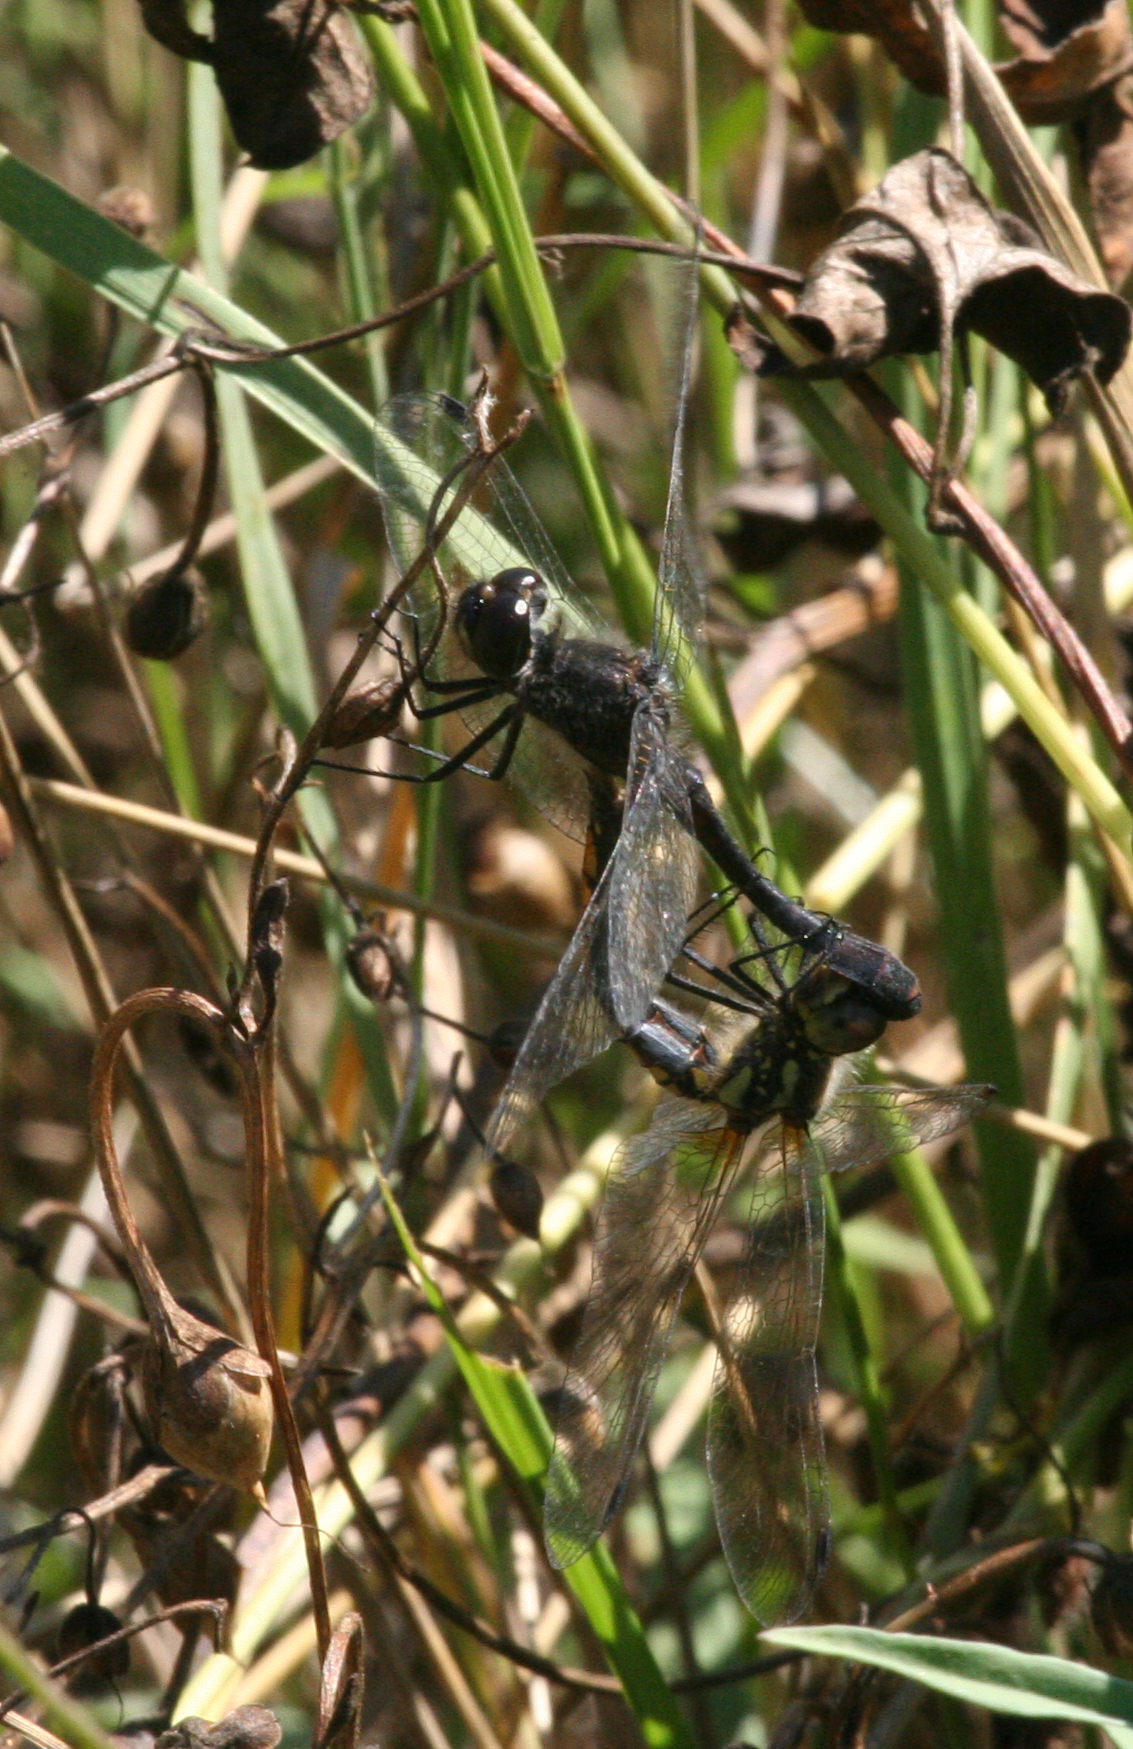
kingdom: Animalia
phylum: Arthropoda
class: Insecta
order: Odonata
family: Libellulidae
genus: Sympetrum
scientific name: Sympetrum danae
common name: Black darter
